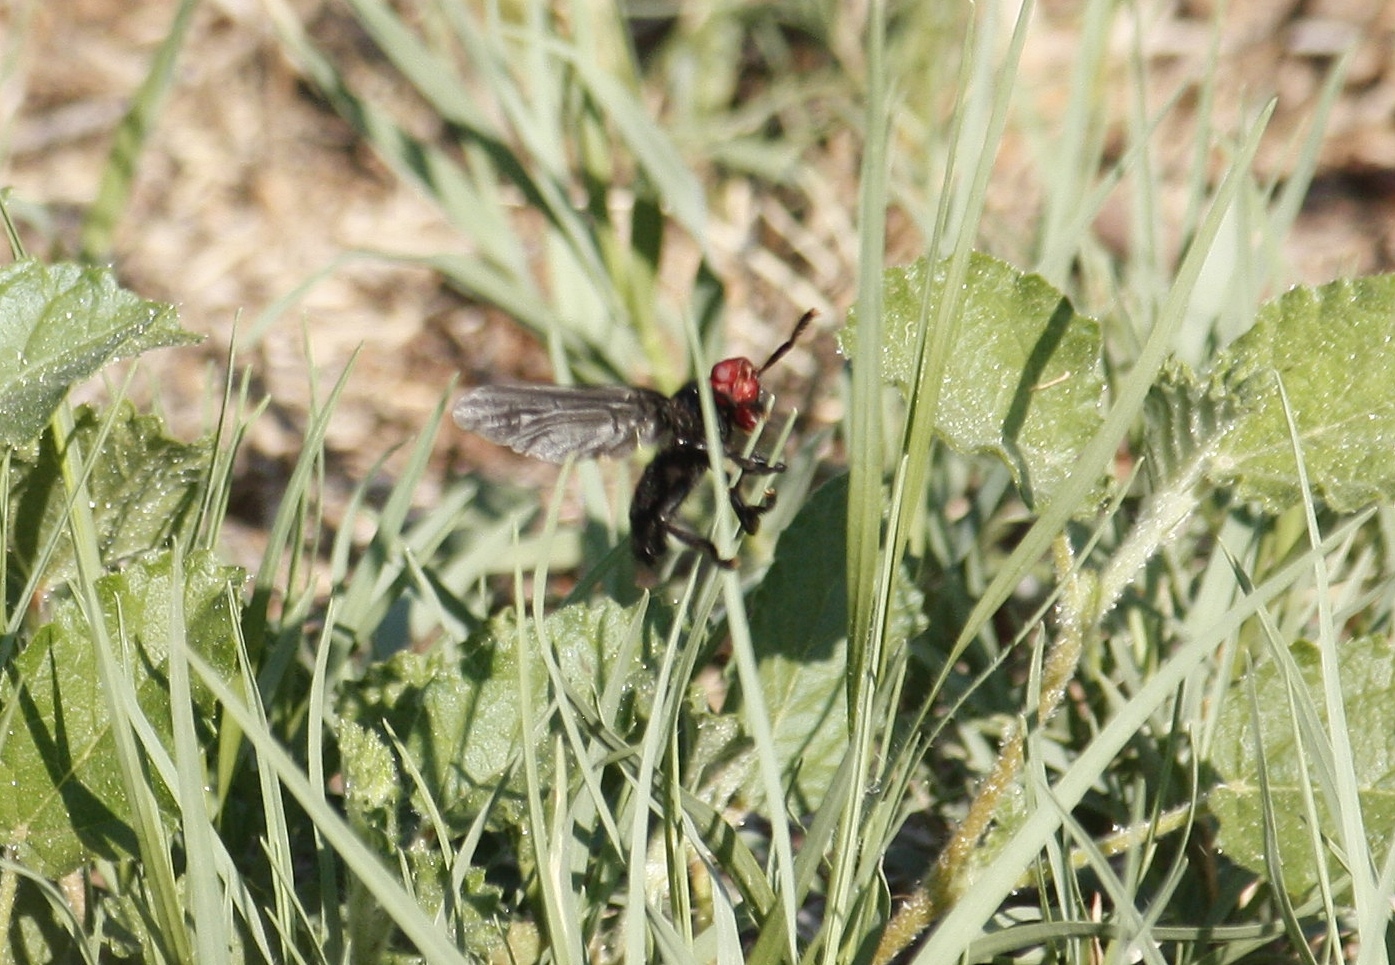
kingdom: Animalia
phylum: Arthropoda
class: Insecta
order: Diptera
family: Platystomatidae
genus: Bromophila
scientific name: Bromophila caffra
